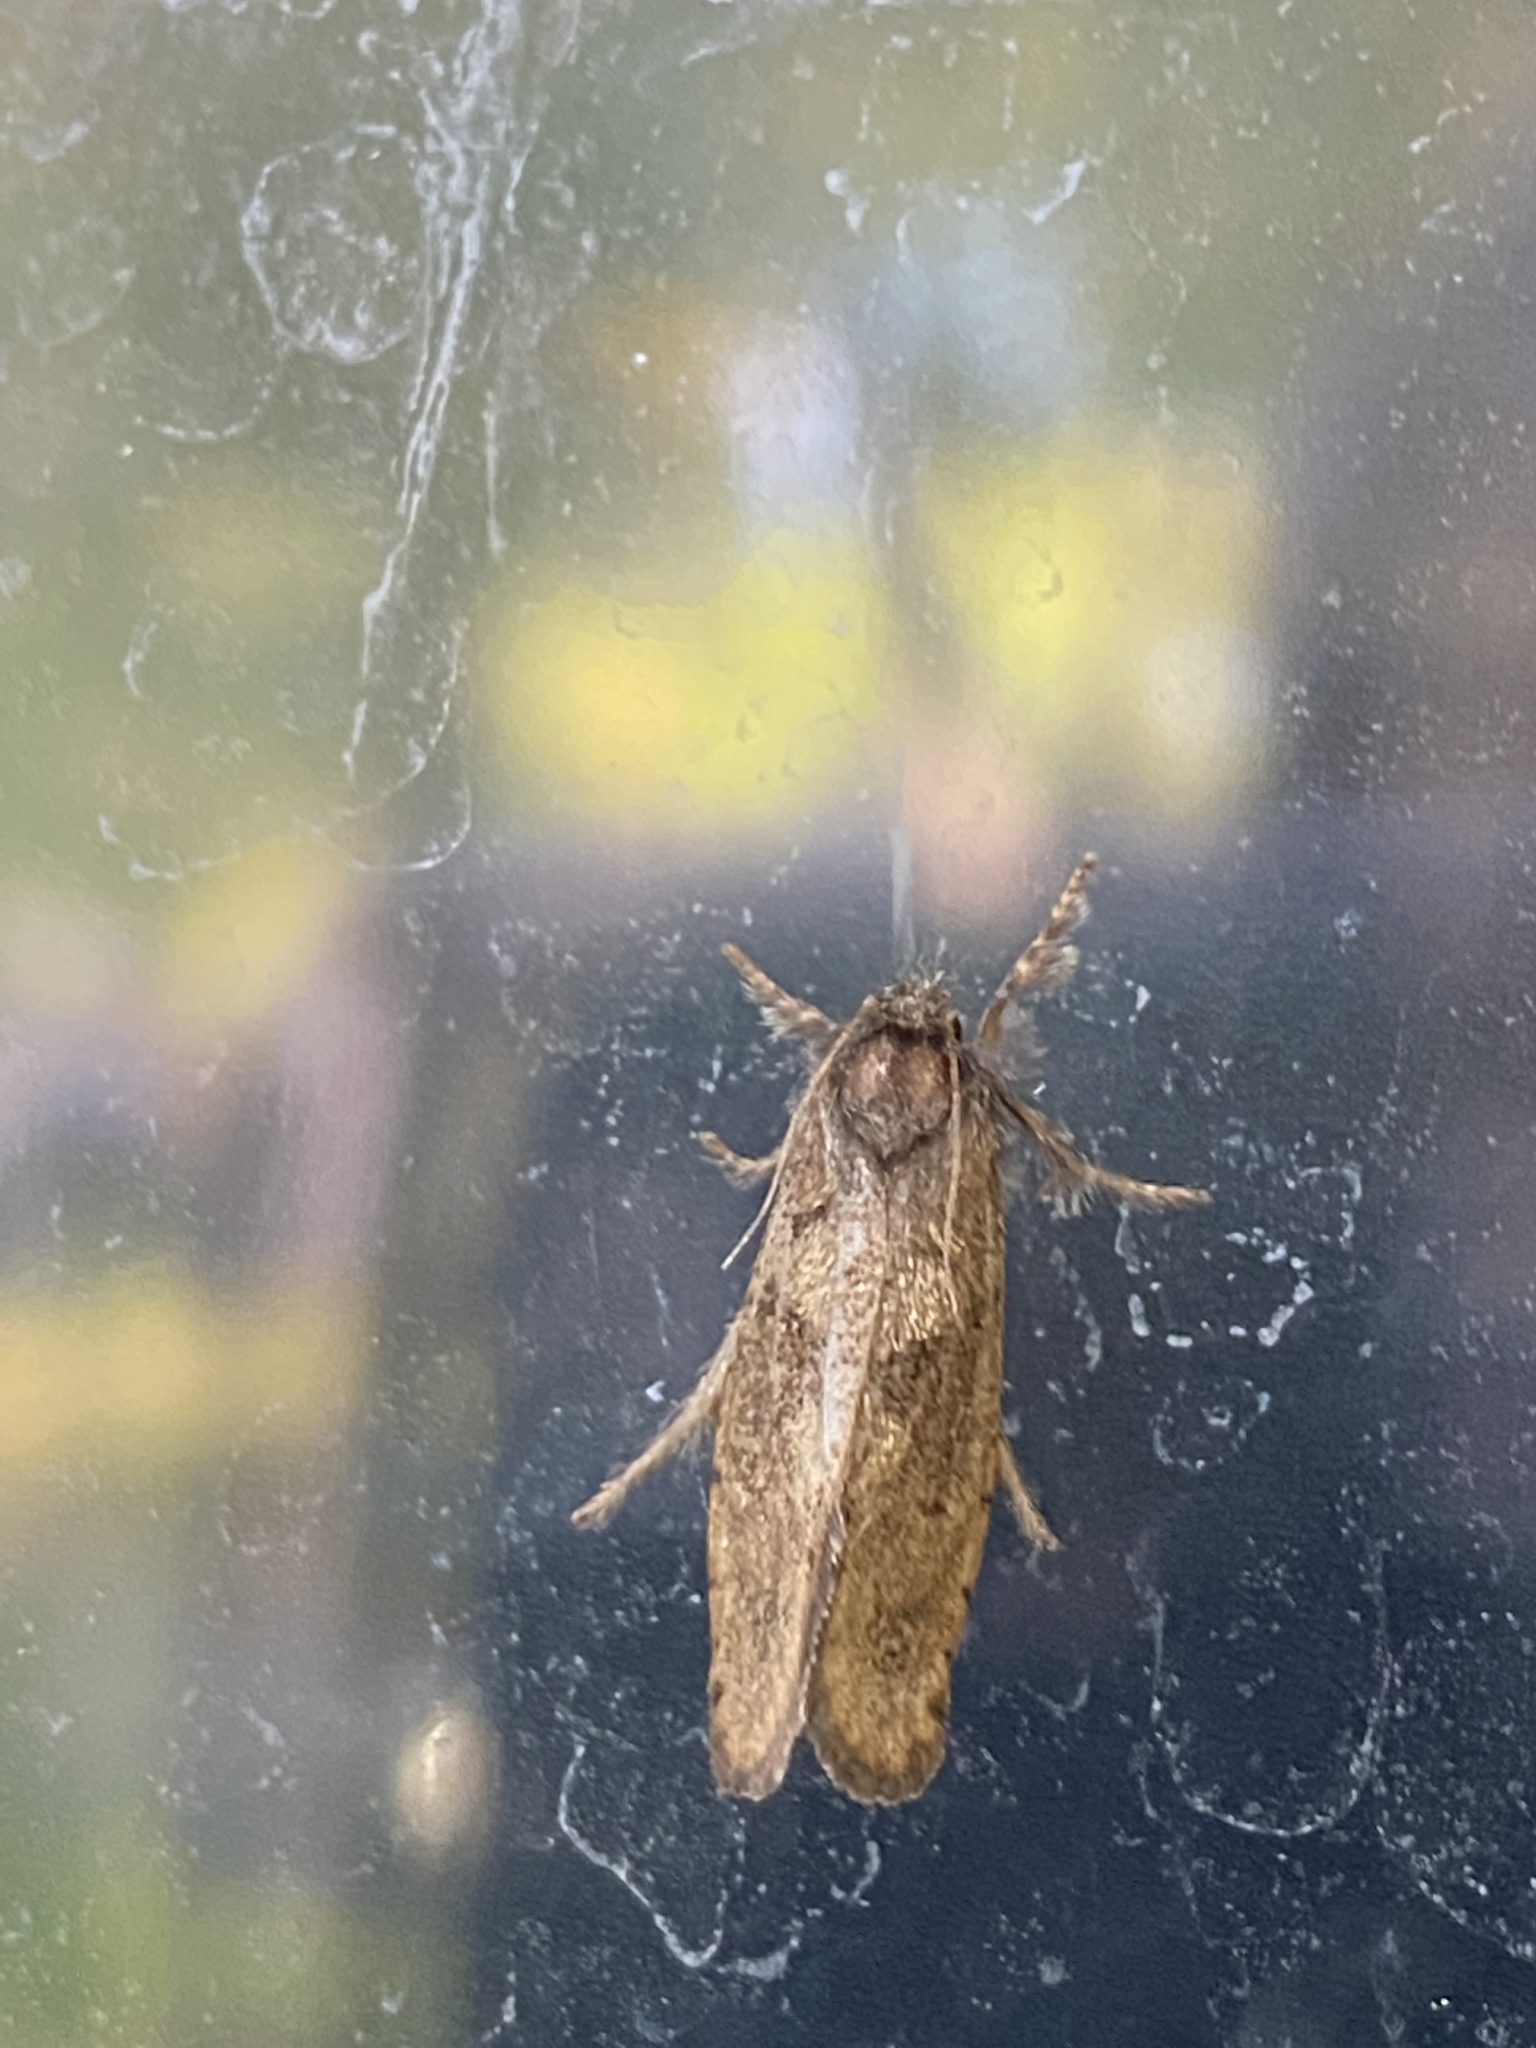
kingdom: Animalia
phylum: Arthropoda
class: Insecta
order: Lepidoptera
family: Tineidae
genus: Acrolophus
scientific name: Acrolophus mora
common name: Dark acrolophus
